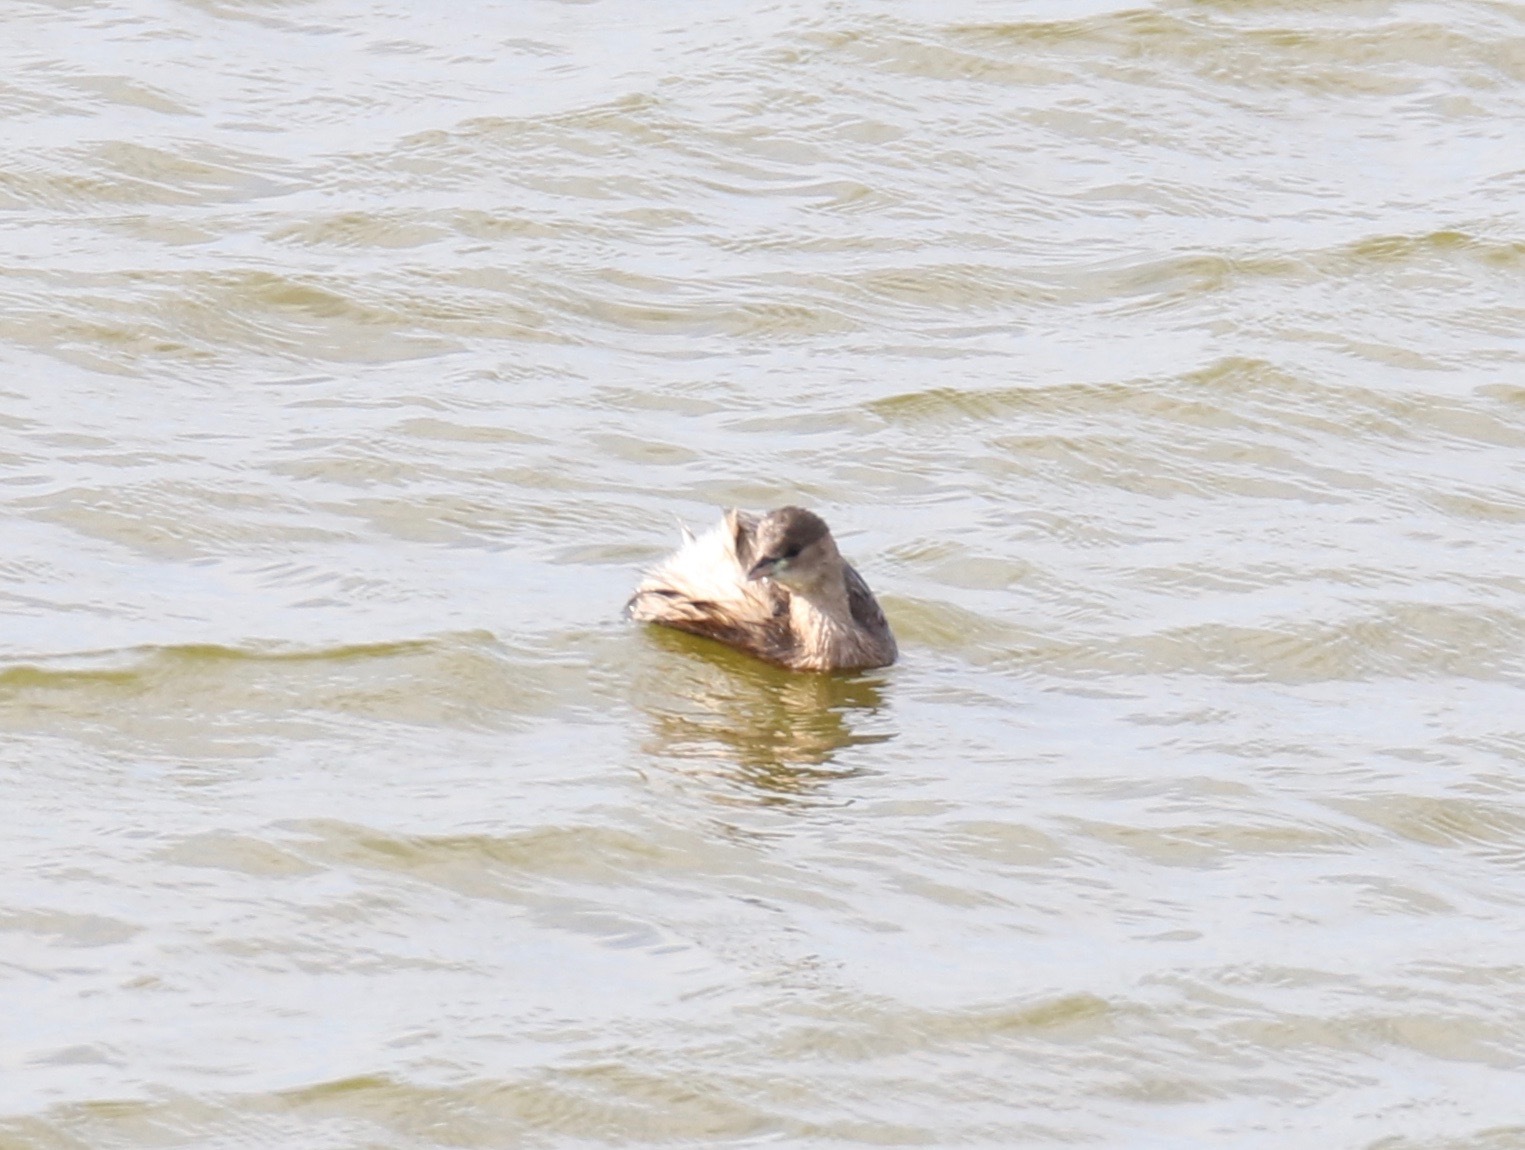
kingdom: Animalia
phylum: Chordata
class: Aves
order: Podicipediformes
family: Podicipedidae
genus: Tachybaptus
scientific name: Tachybaptus ruficollis
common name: Little grebe
